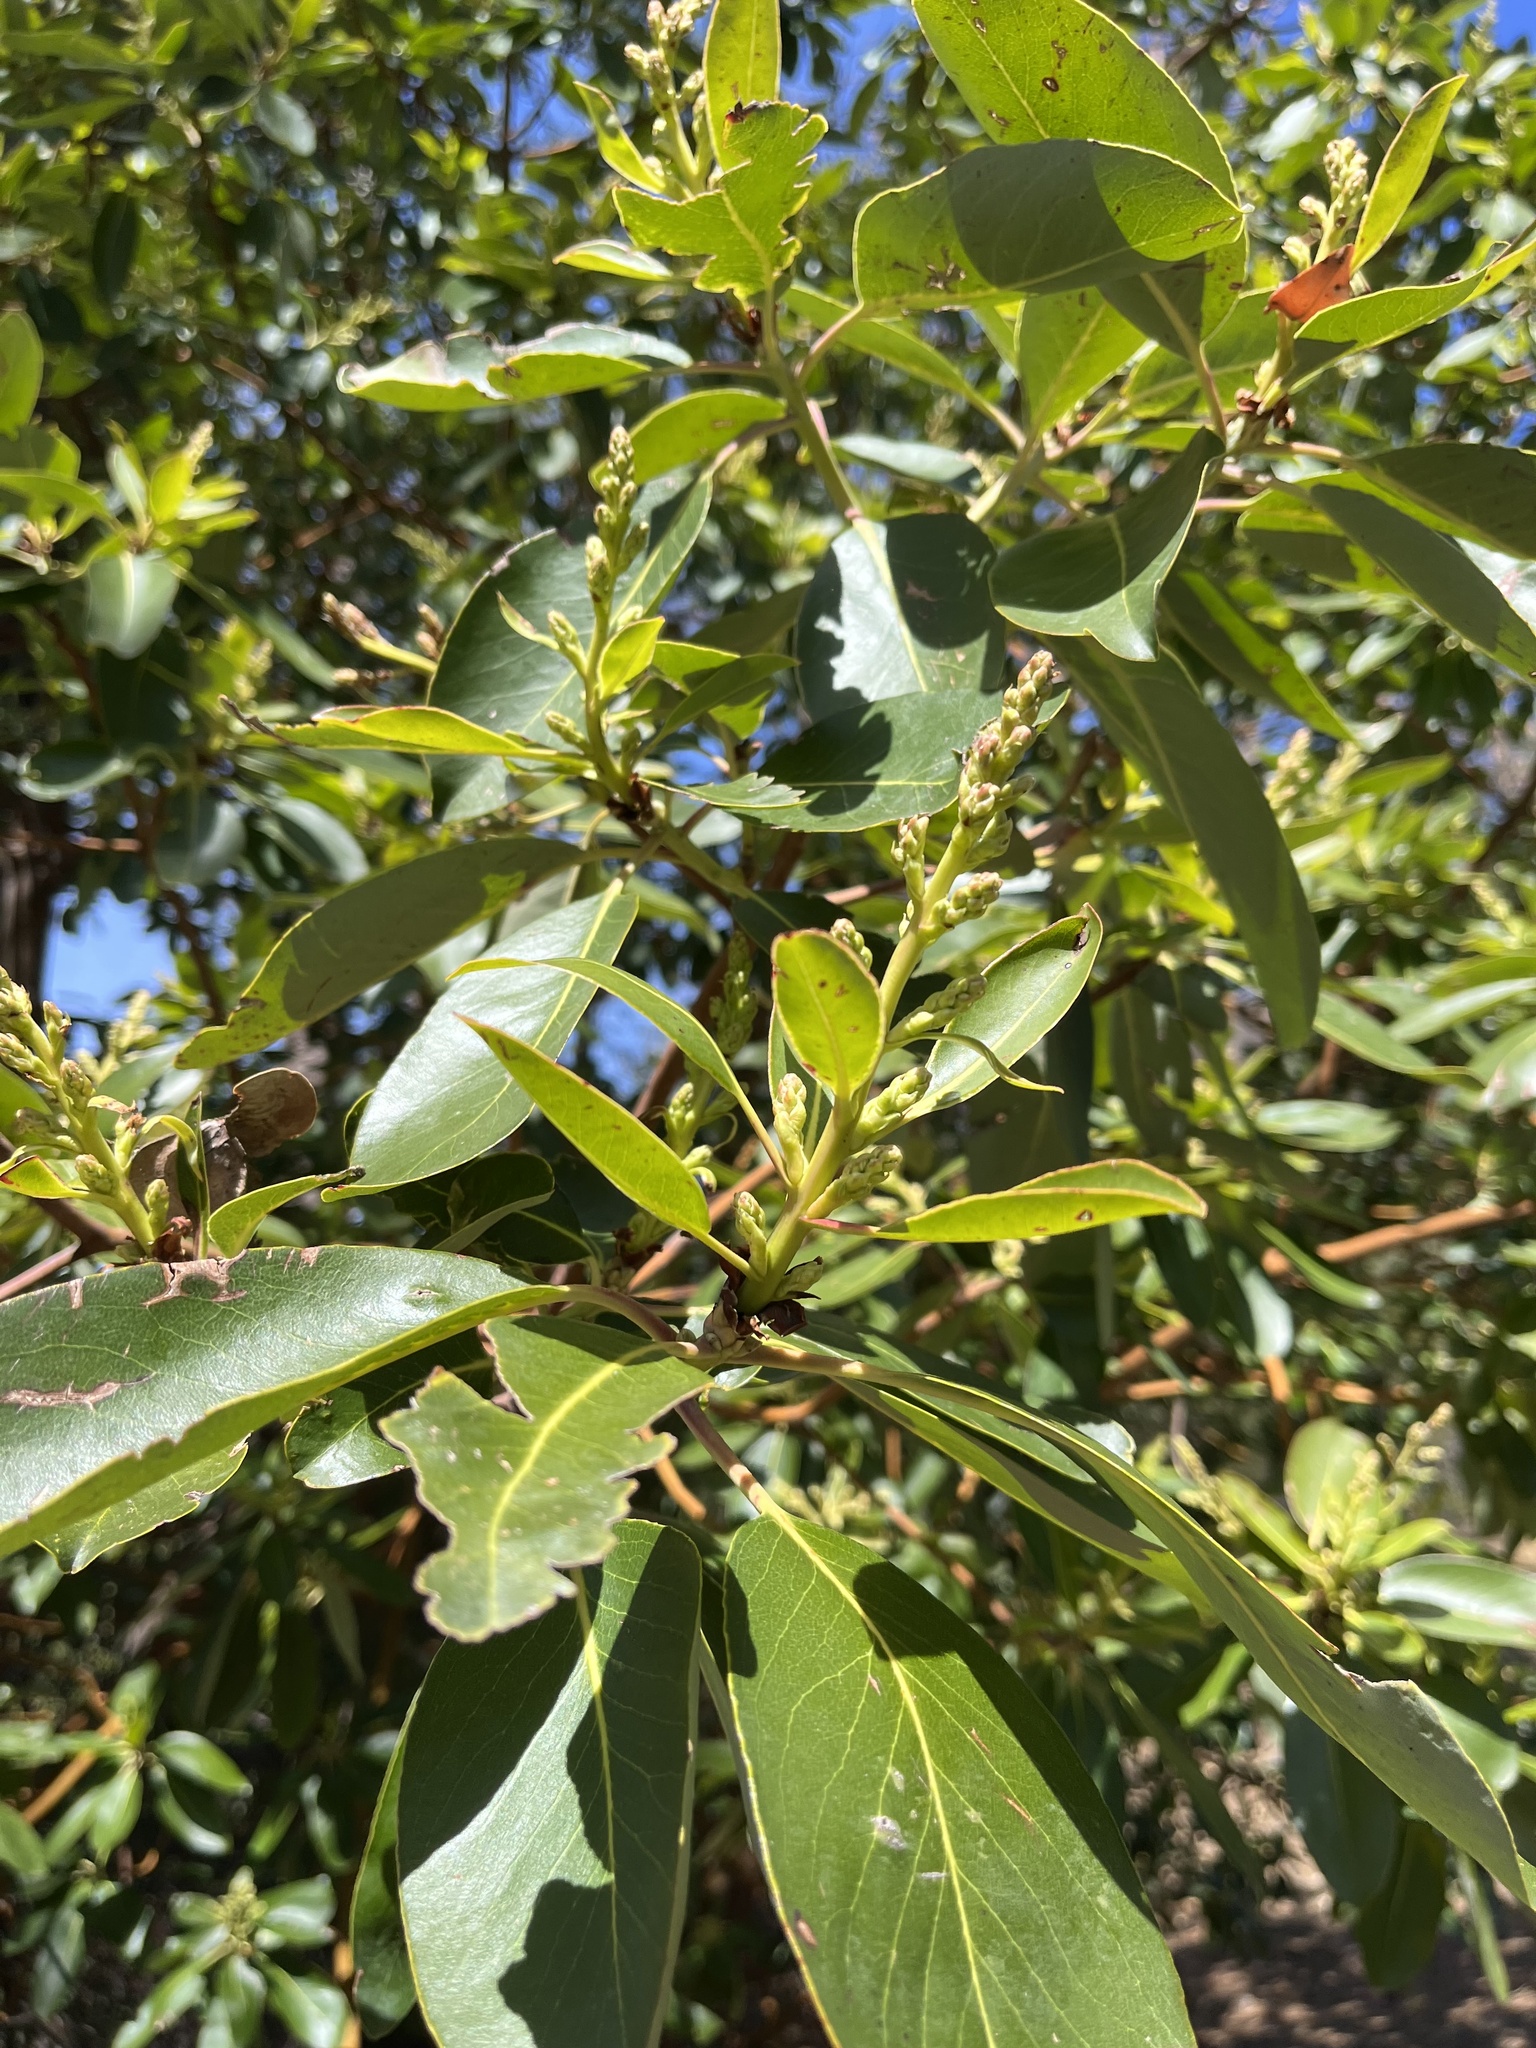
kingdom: Plantae
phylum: Tracheophyta
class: Magnoliopsida
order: Ericales
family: Ericaceae
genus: Arbutus
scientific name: Arbutus menziesii
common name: Pacific madrone
